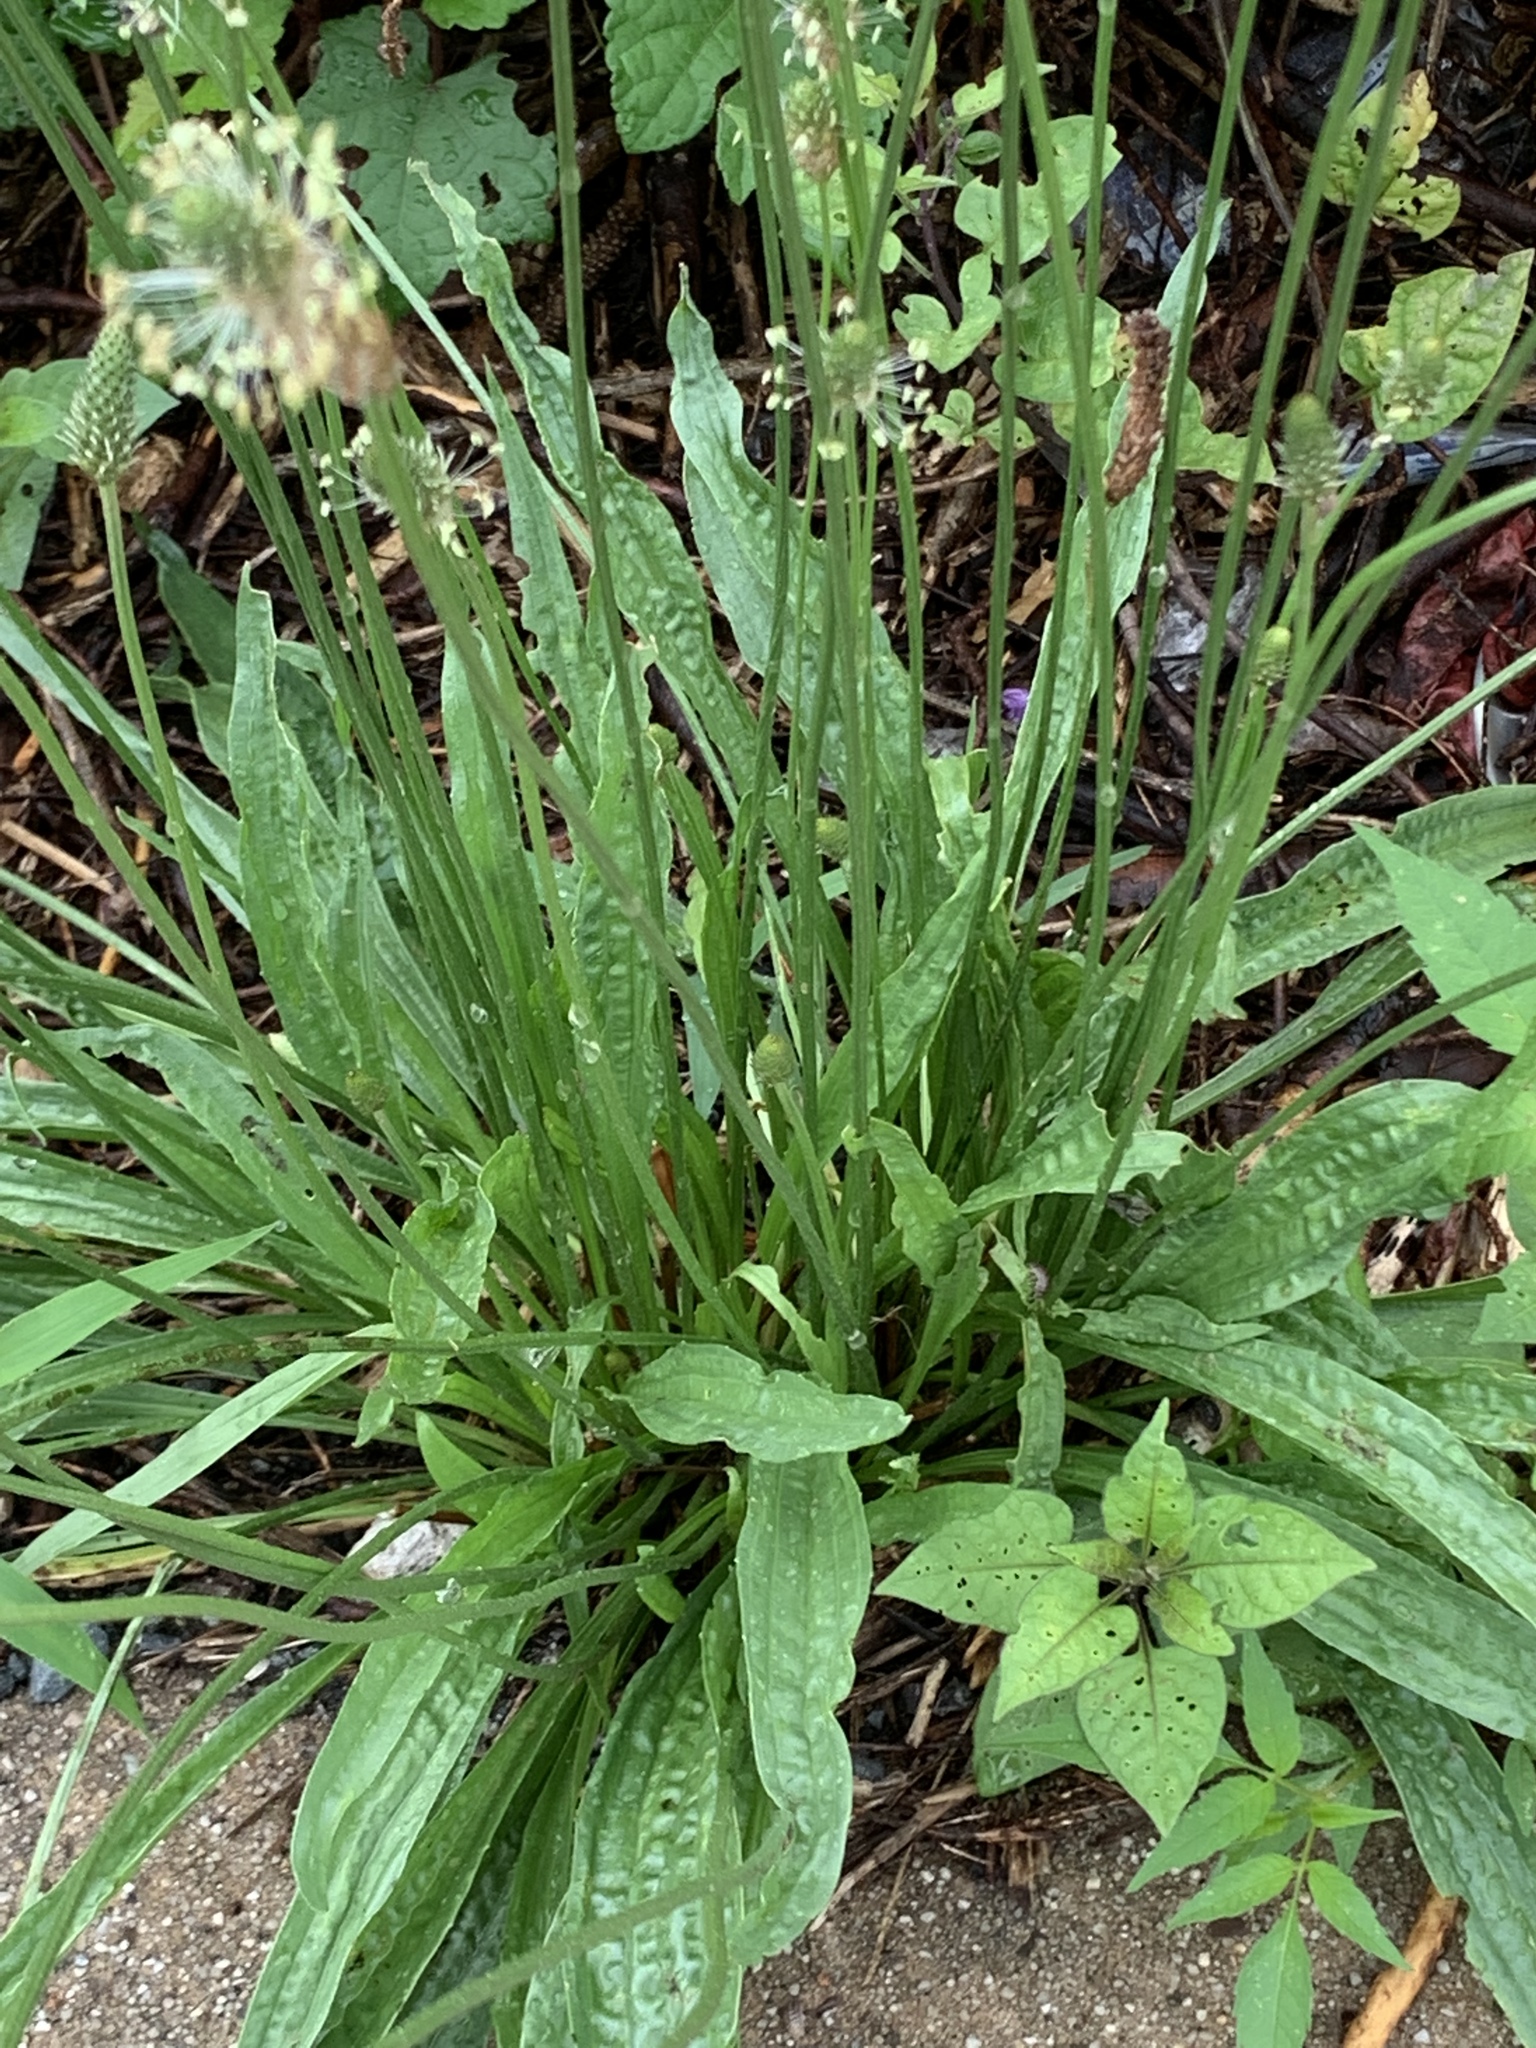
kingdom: Plantae
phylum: Tracheophyta
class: Magnoliopsida
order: Lamiales
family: Plantaginaceae
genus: Plantago
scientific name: Plantago lanceolata
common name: Ribwort plantain
